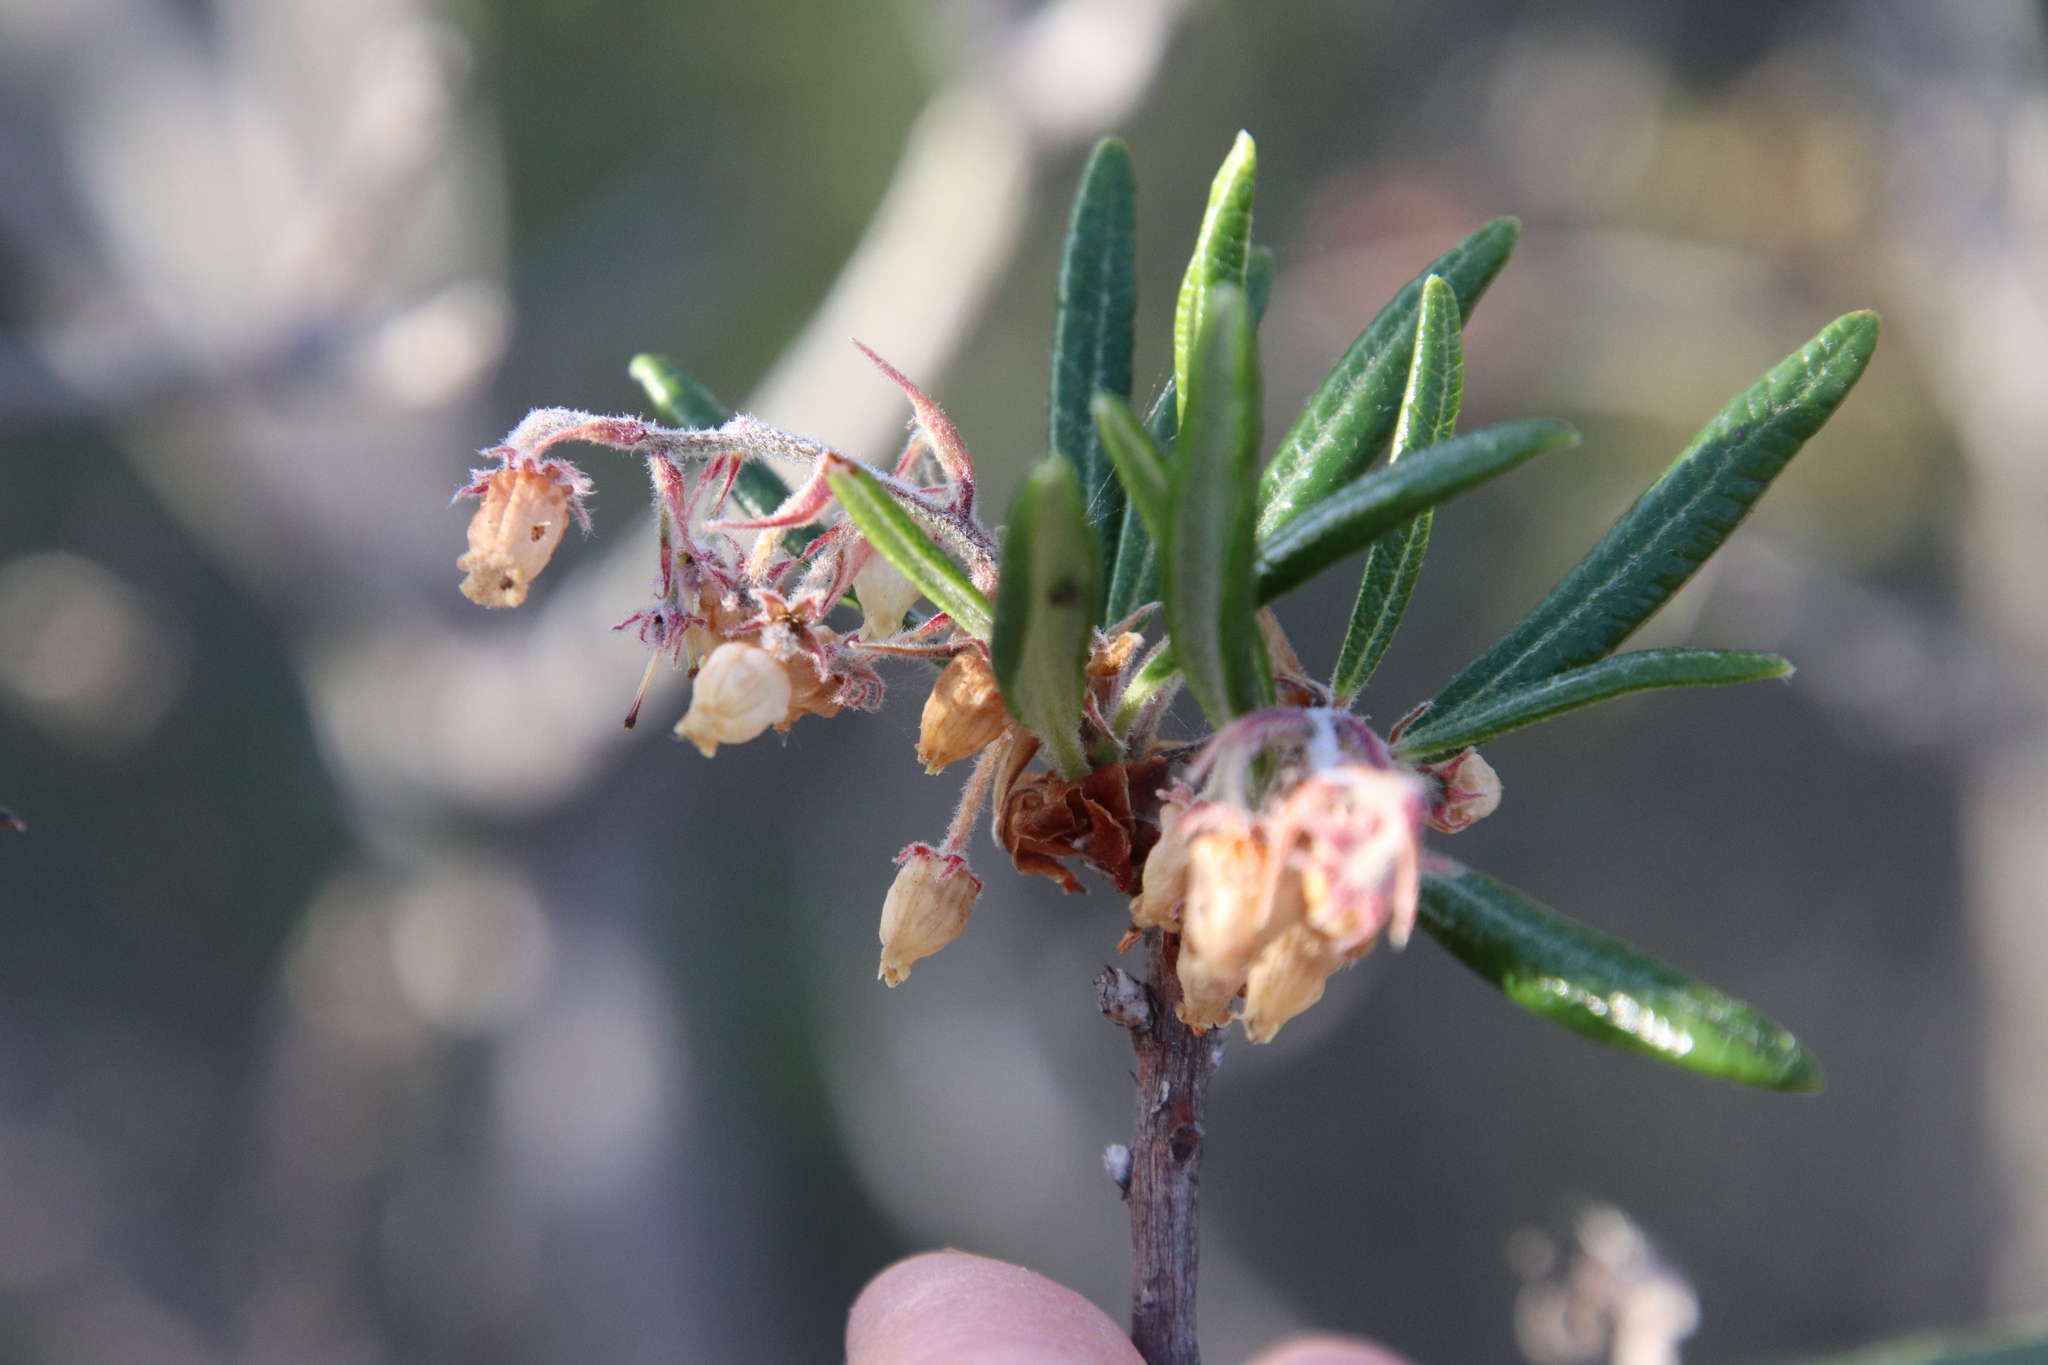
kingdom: Plantae
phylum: Tracheophyta
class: Magnoliopsida
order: Ericales
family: Ericaceae
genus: Comarostaphylis
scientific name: Comarostaphylis diversifolia
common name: Summer-holly
